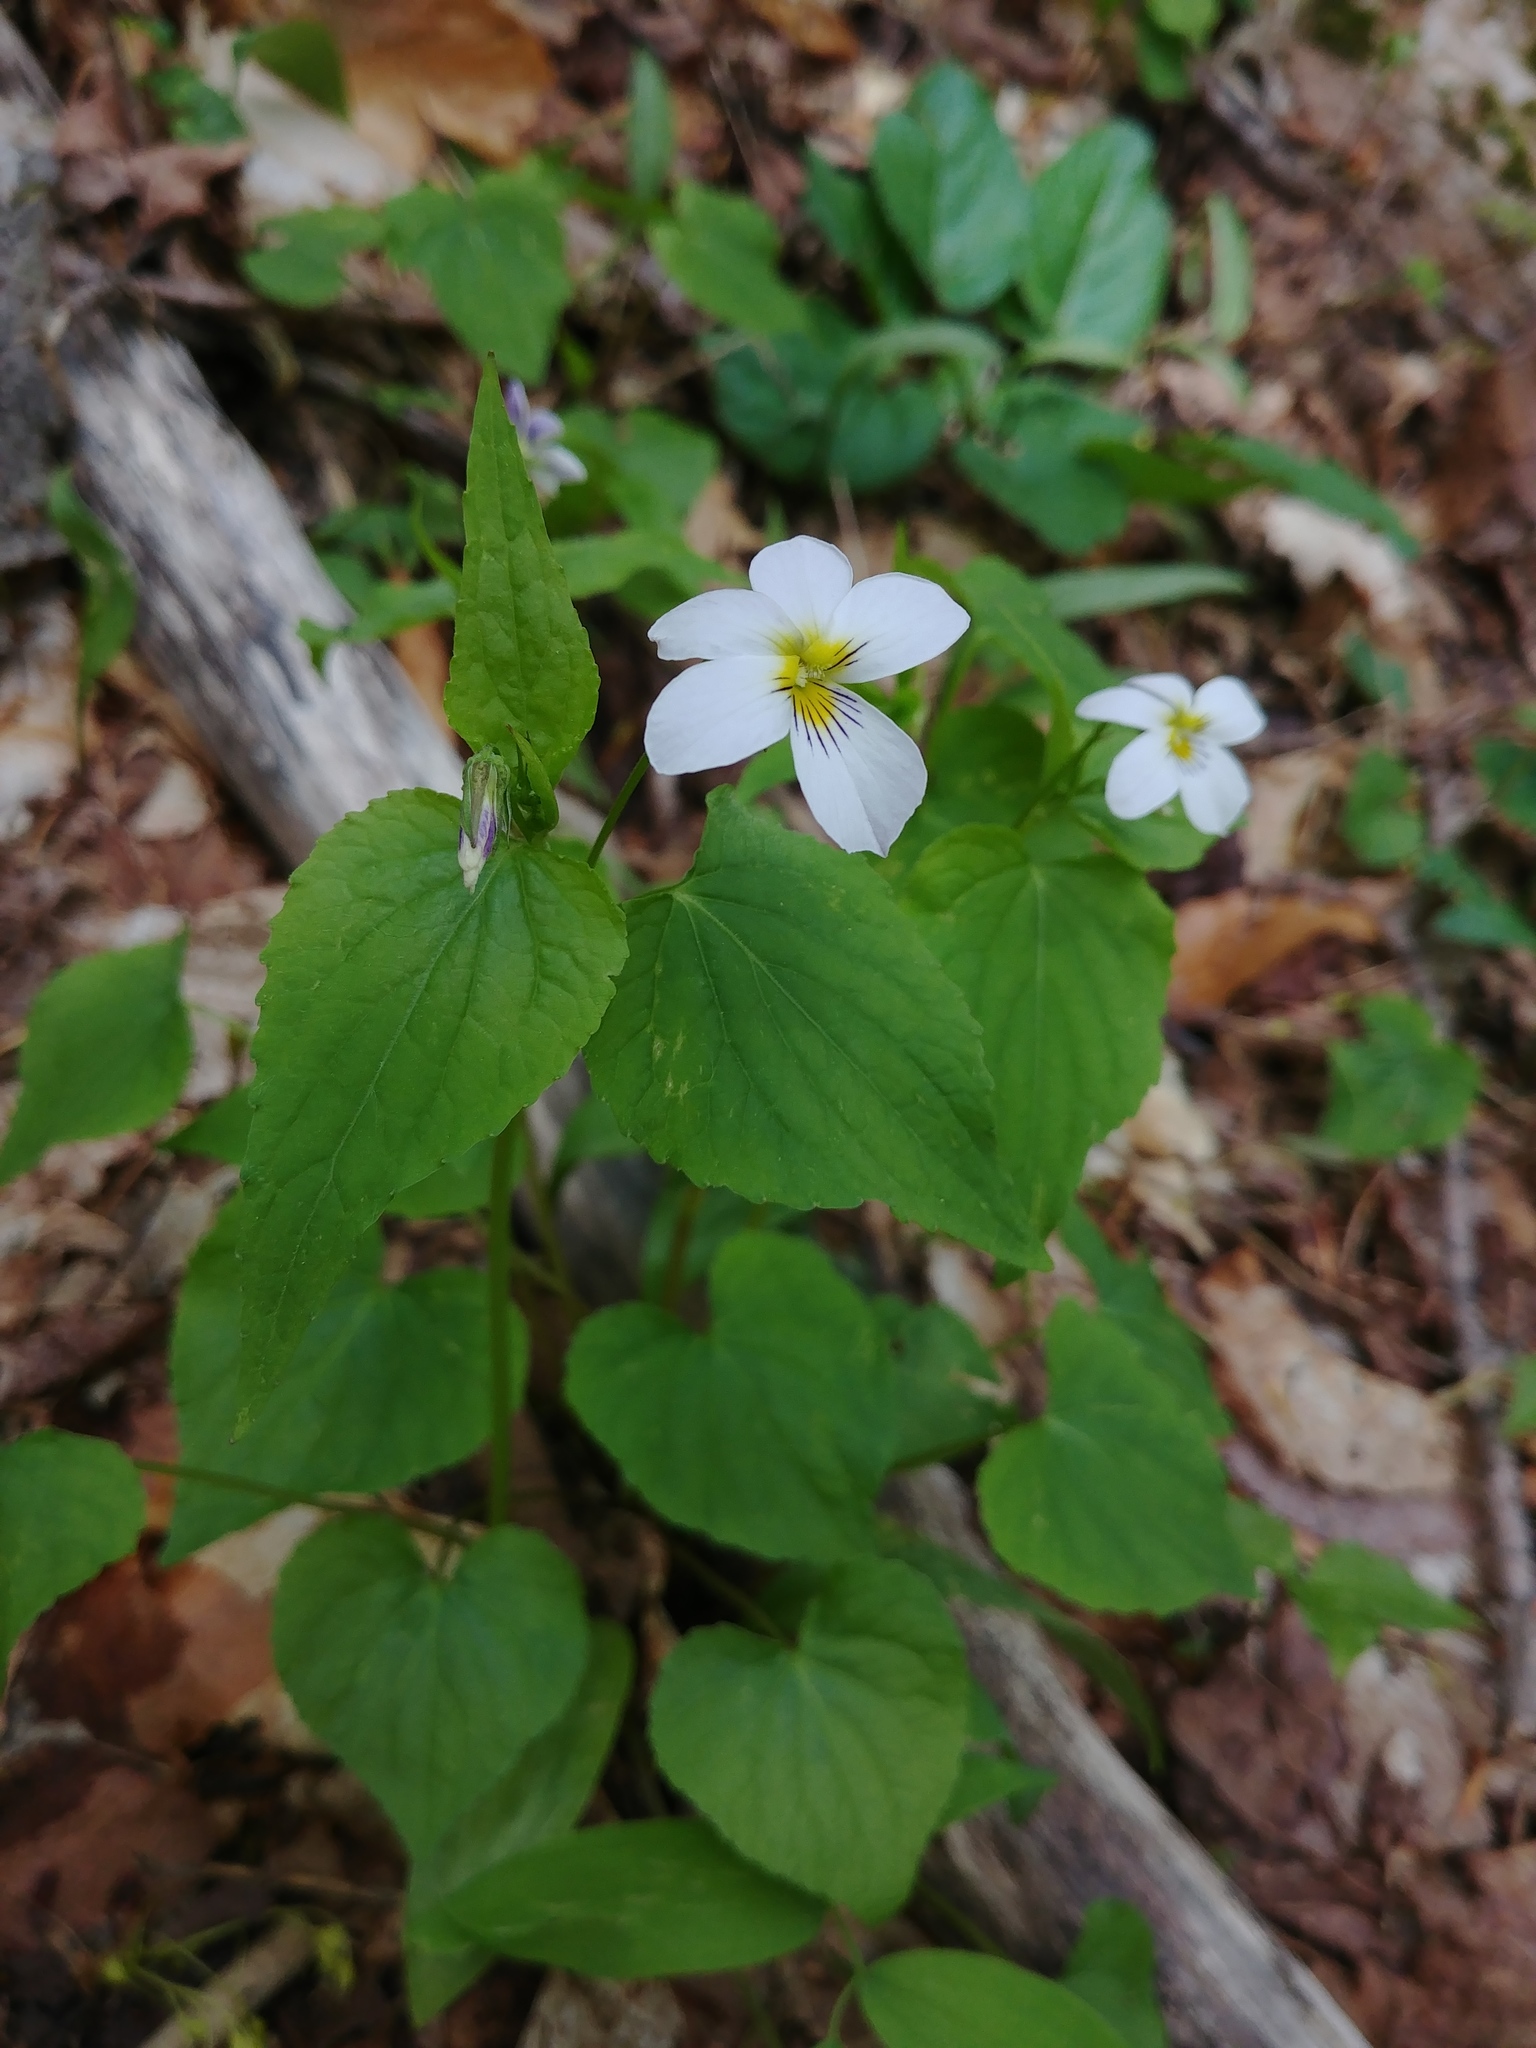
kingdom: Plantae
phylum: Tracheophyta
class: Magnoliopsida
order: Malpighiales
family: Violaceae
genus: Viola
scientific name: Viola canadensis
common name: Canada violet
